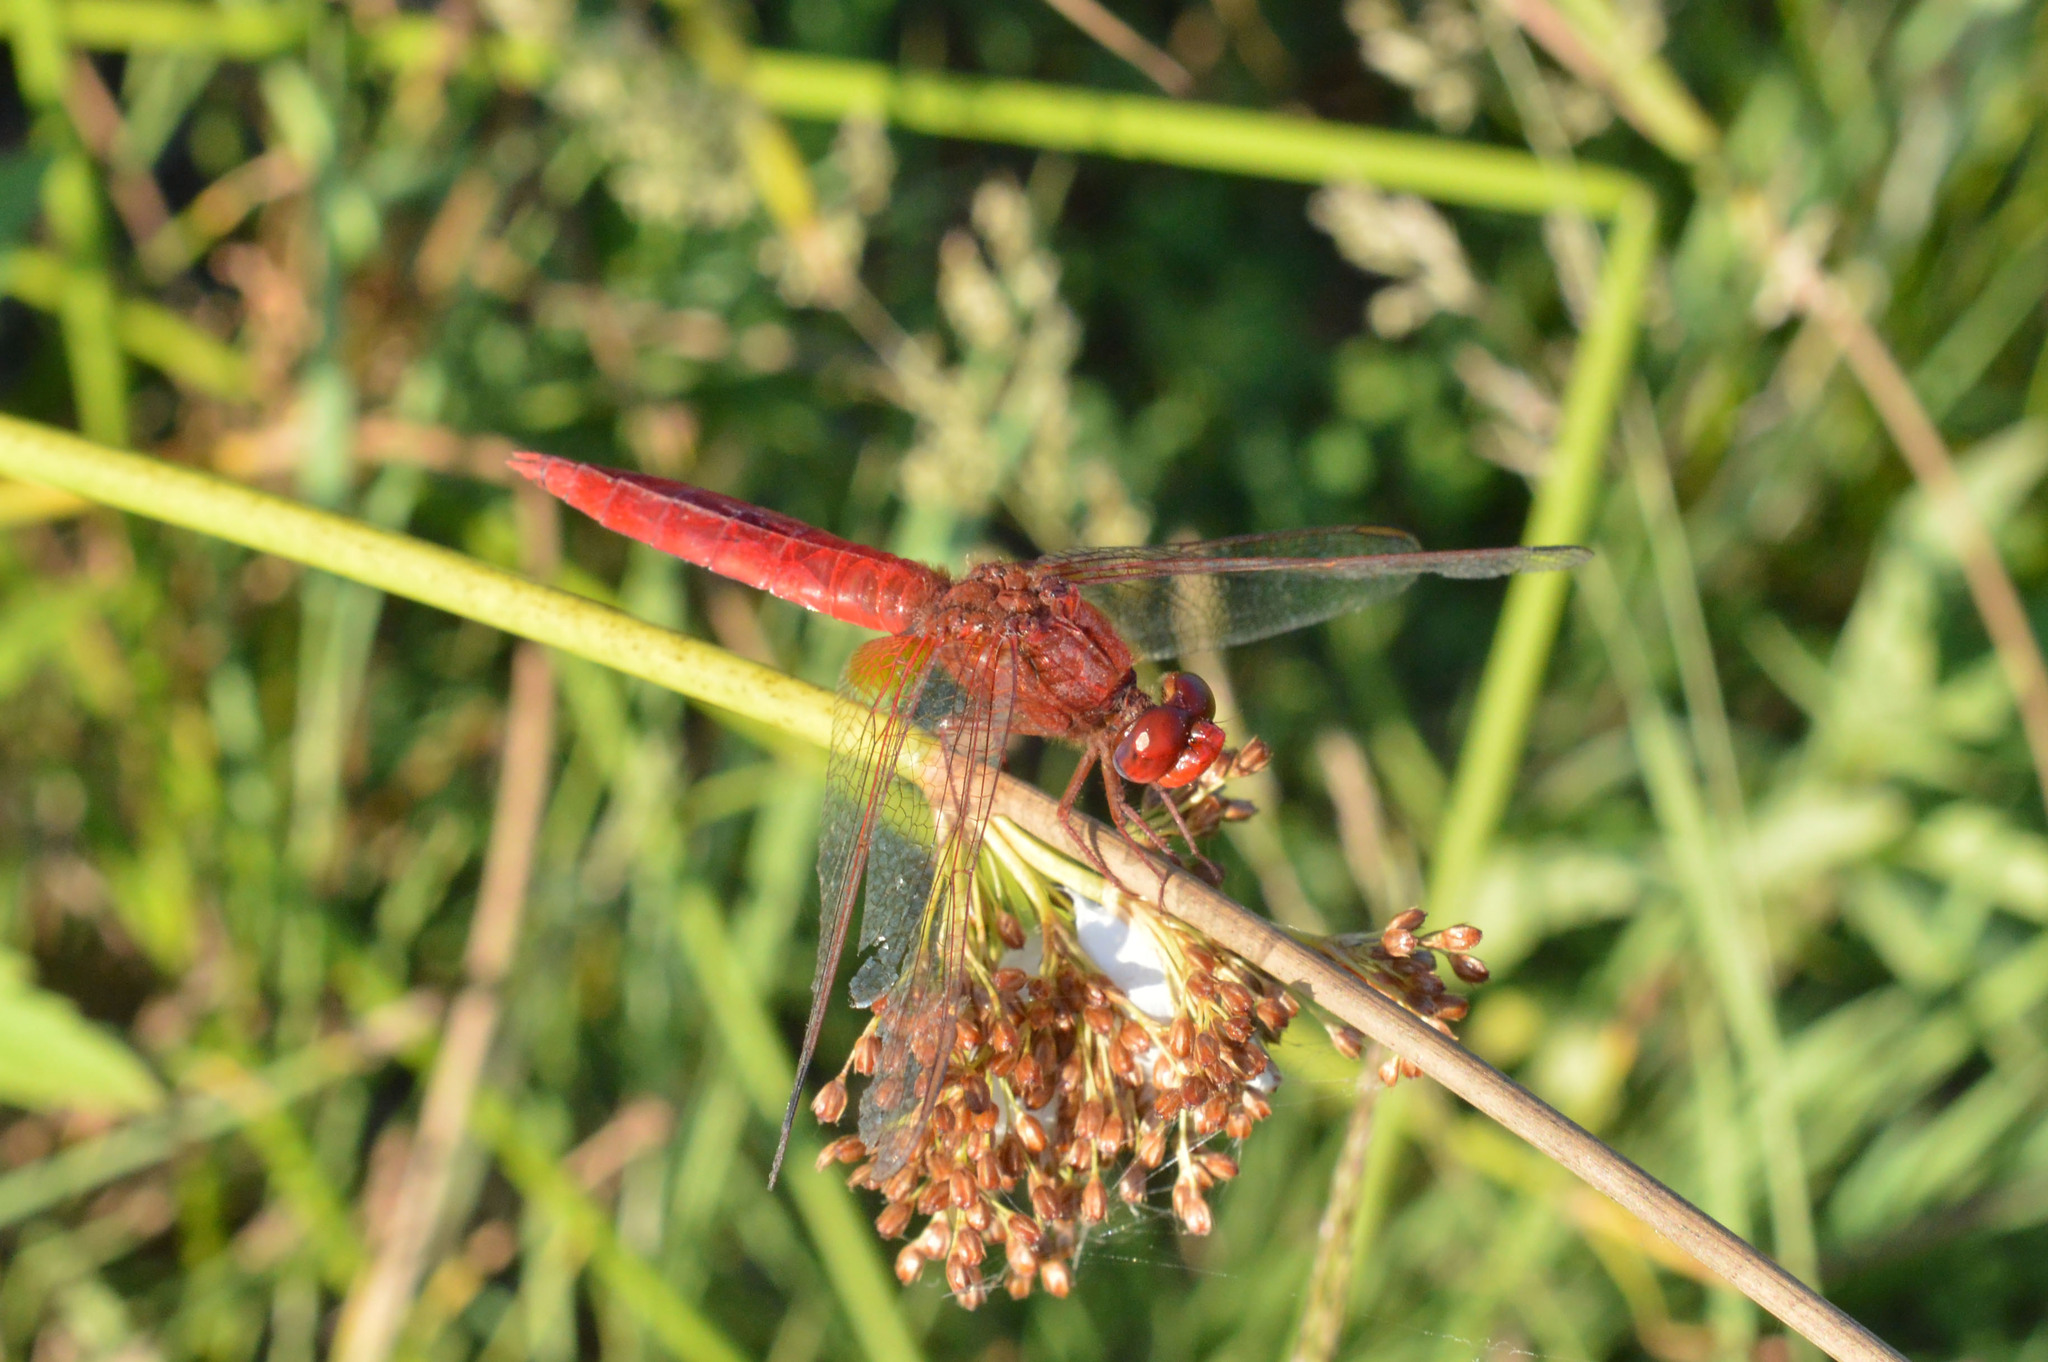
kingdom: Animalia
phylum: Arthropoda
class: Insecta
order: Odonata
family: Libellulidae
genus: Crocothemis
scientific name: Crocothemis erythraea
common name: Scarlet dragonfly
